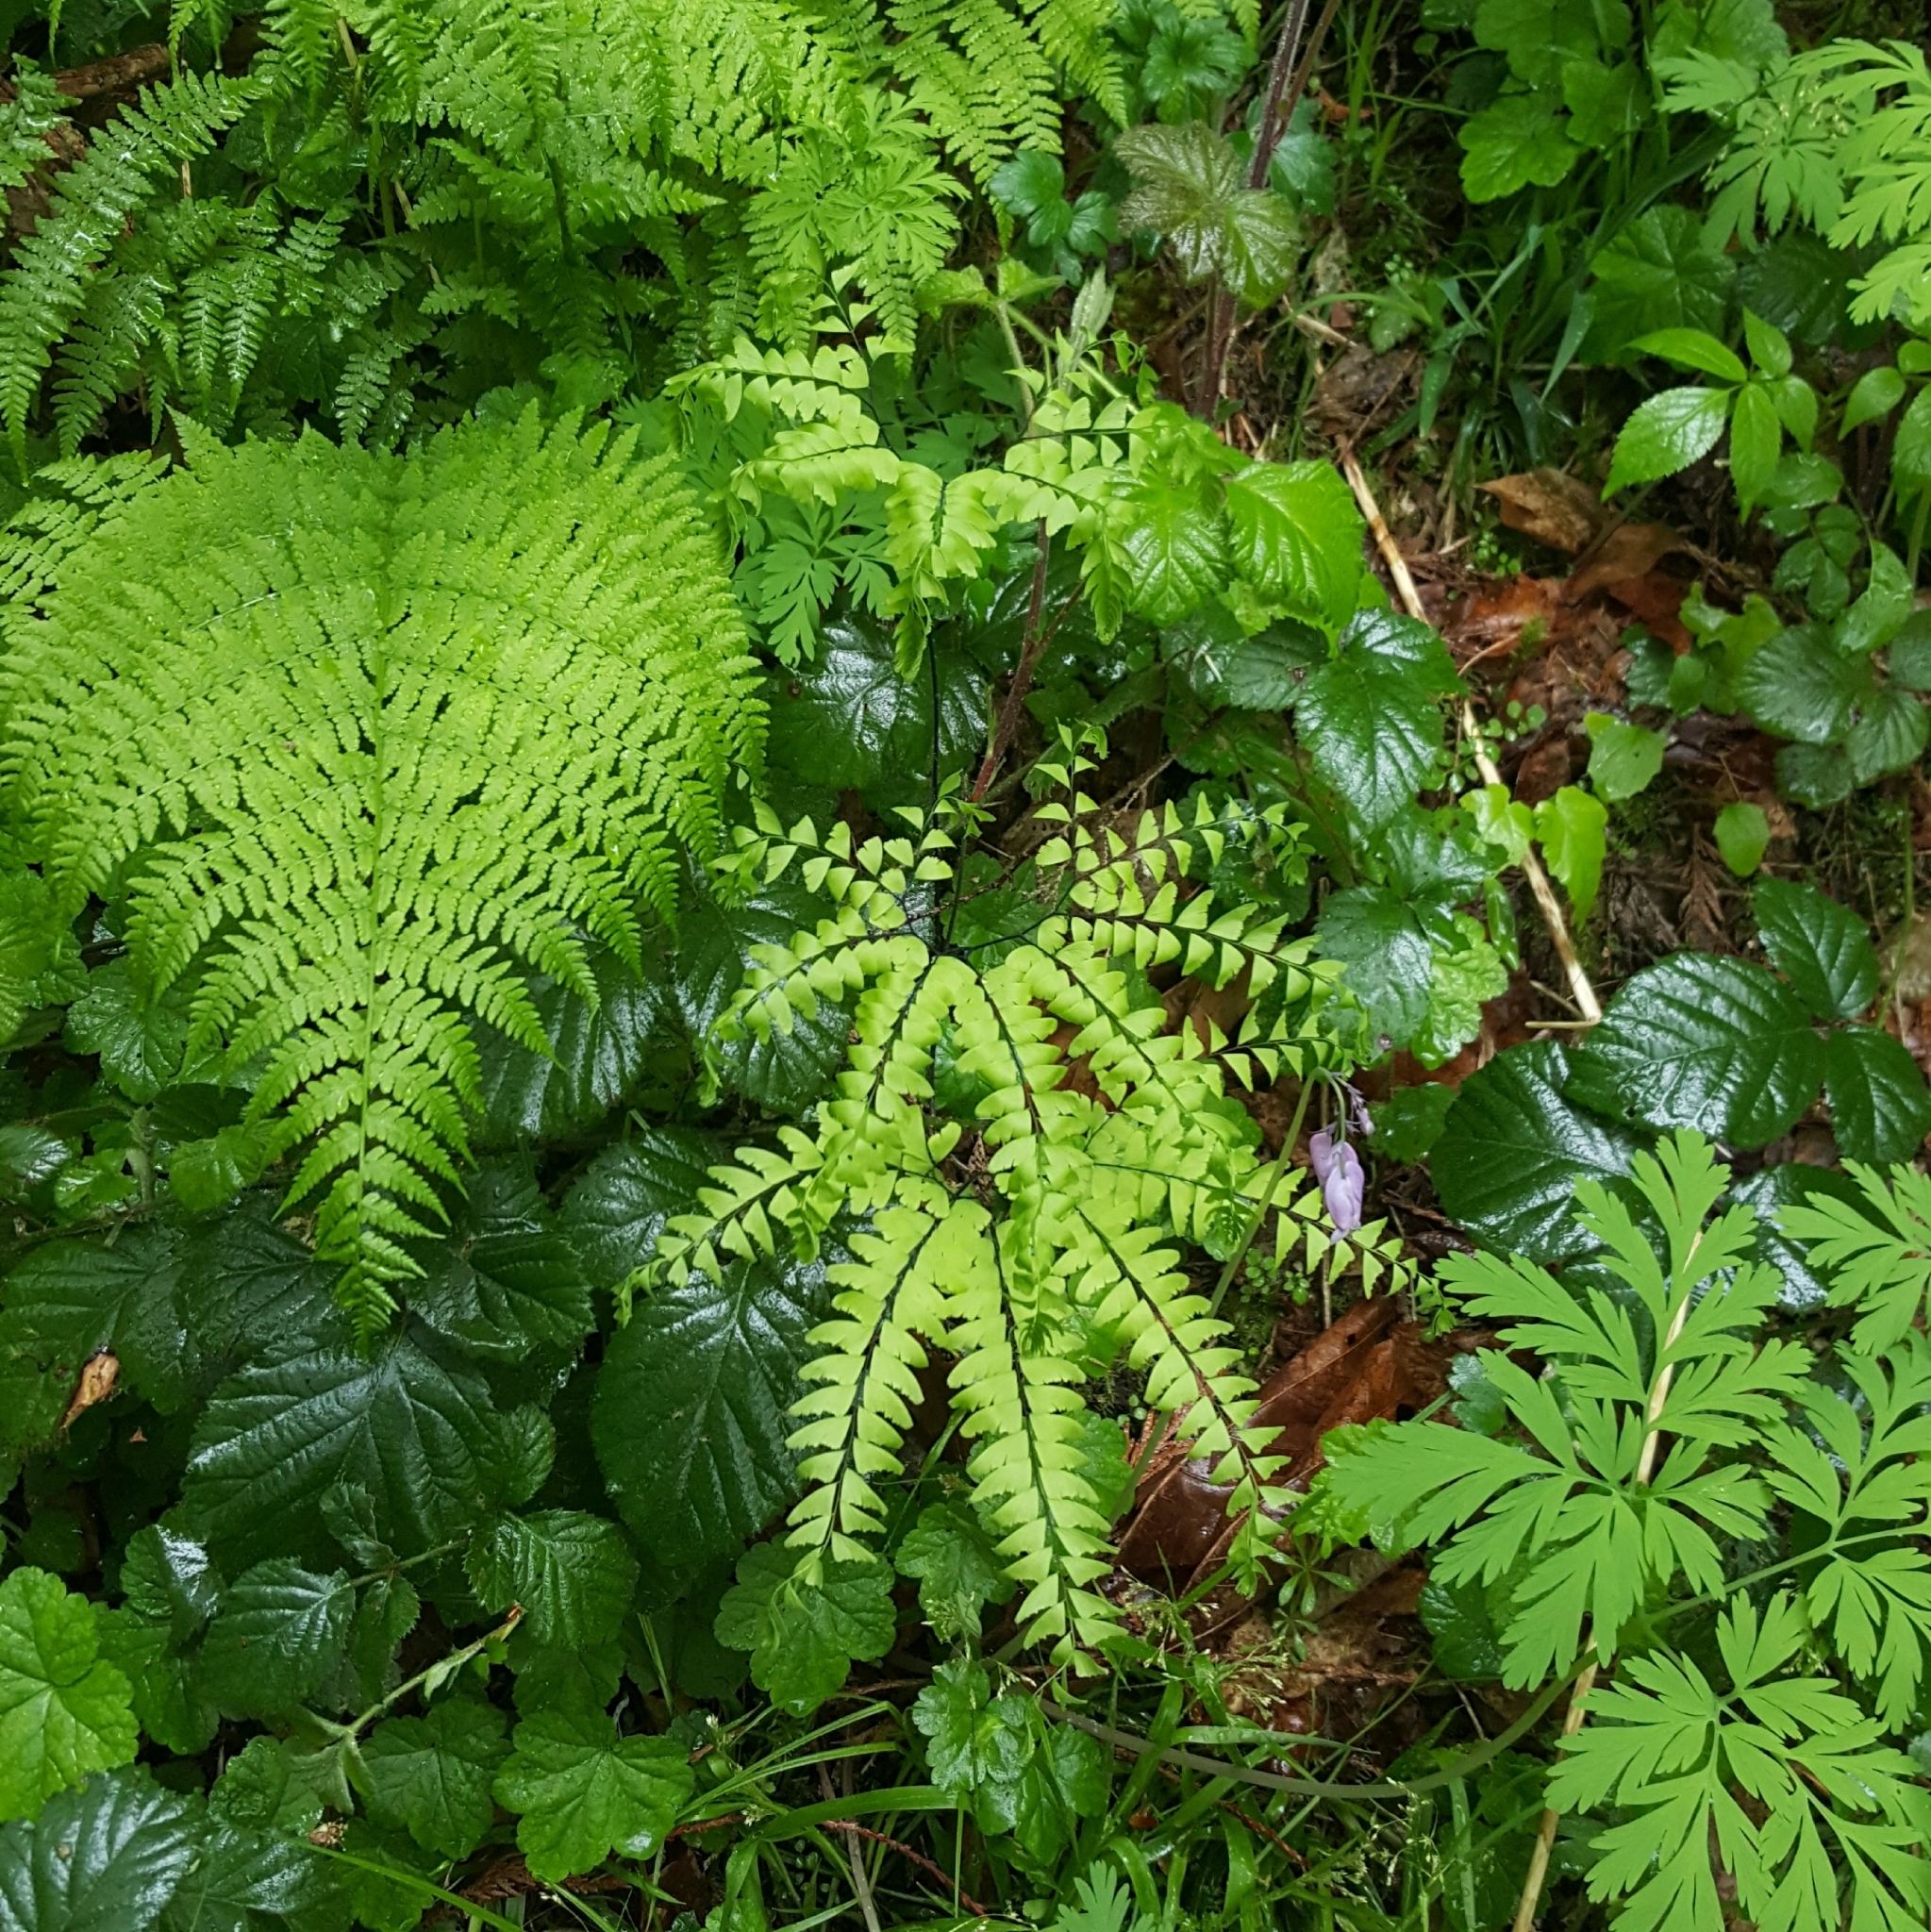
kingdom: Plantae
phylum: Tracheophyta
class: Polypodiopsida
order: Polypodiales
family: Pteridaceae
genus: Adiantum
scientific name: Adiantum aleuticum
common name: Aleutian maidenhair fern
